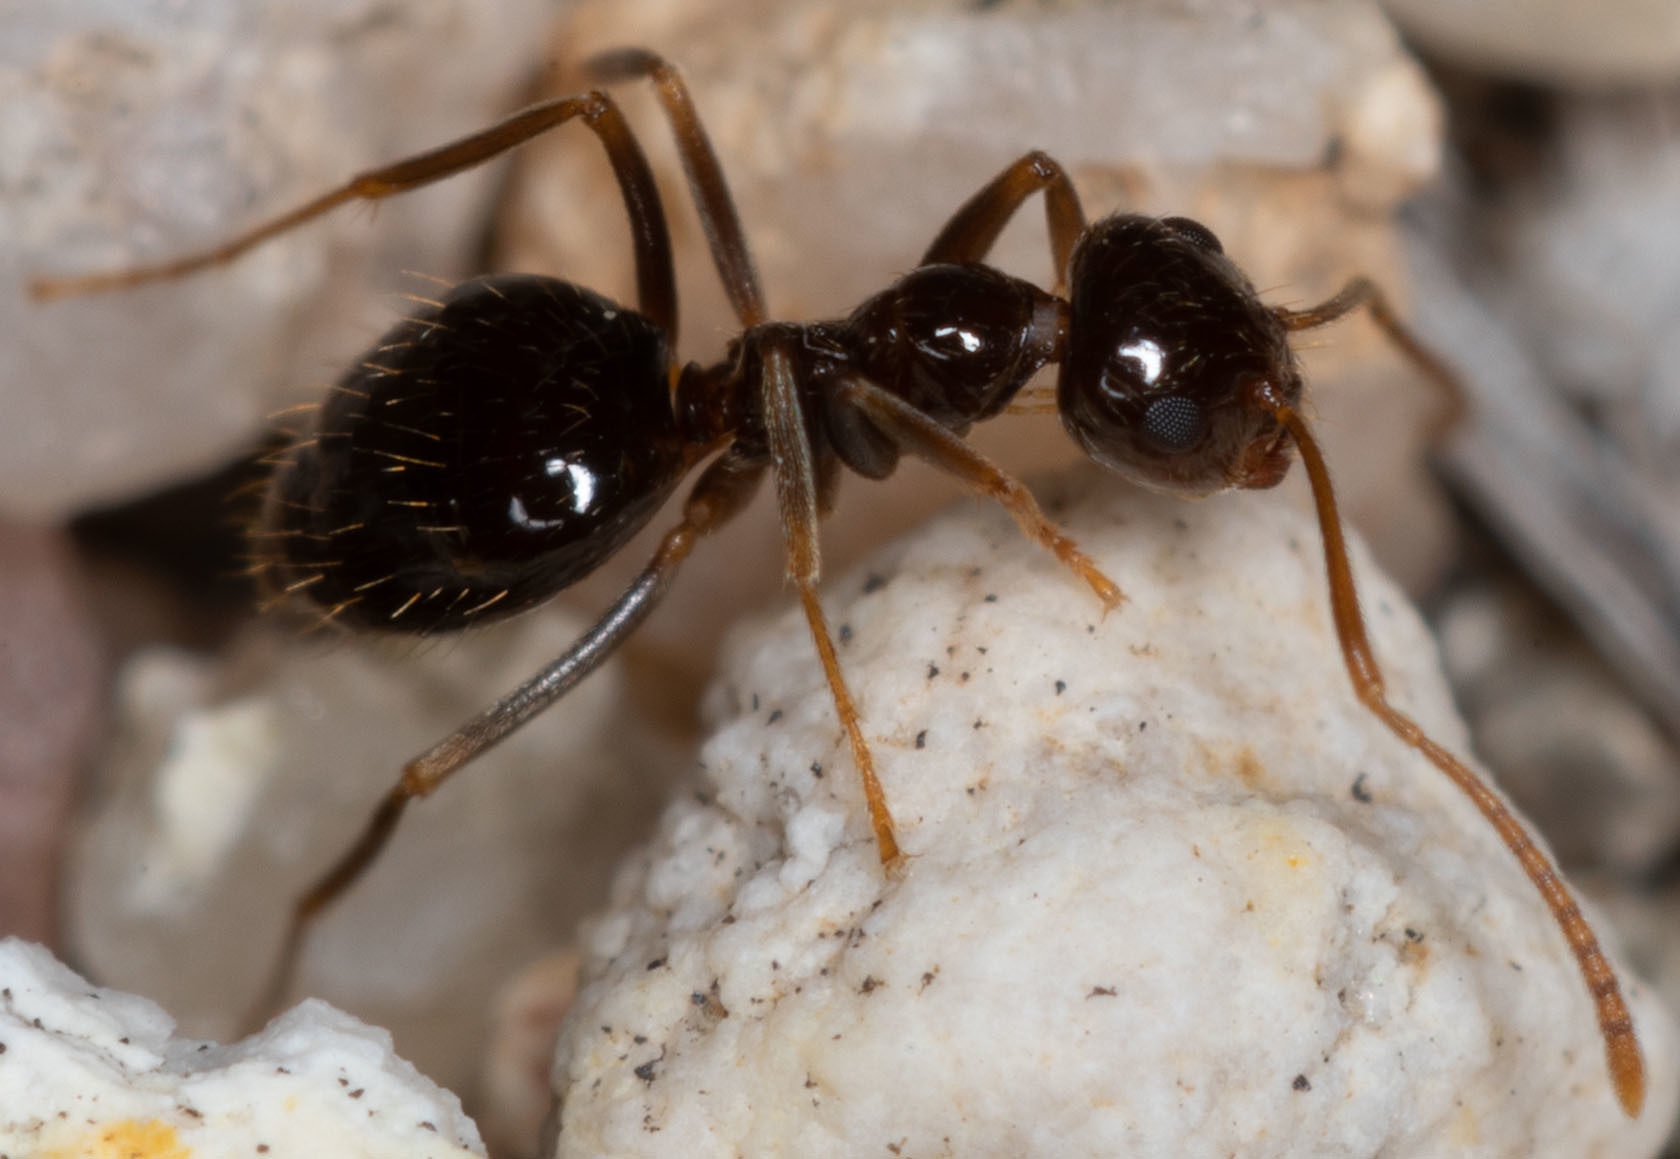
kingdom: Animalia
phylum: Arthropoda
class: Insecta
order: Hymenoptera
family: Formicidae
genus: Prenolepis
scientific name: Prenolepis imparis
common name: Small honey ant
